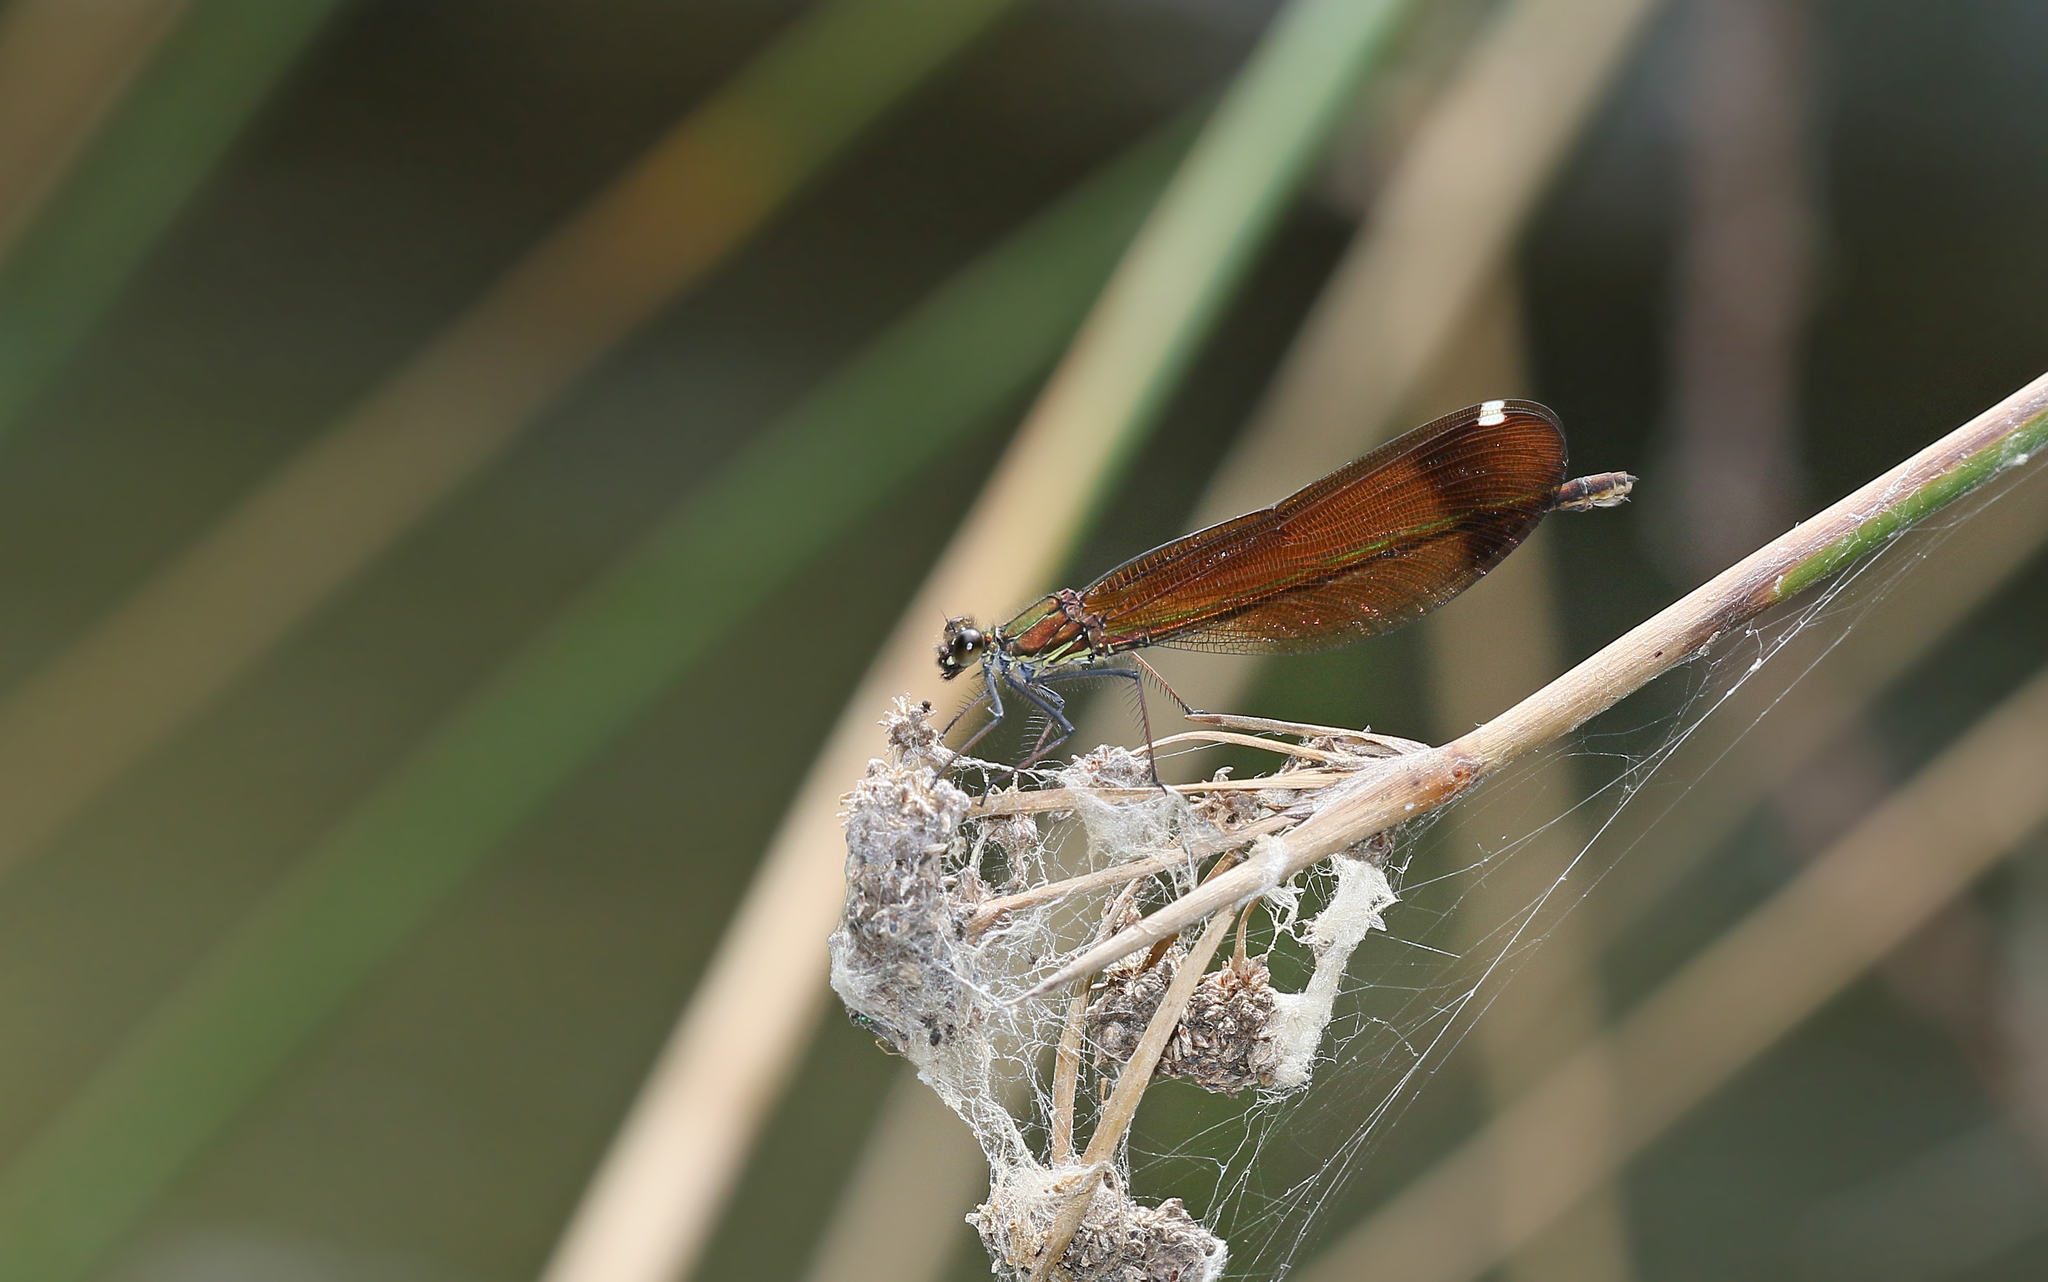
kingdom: Animalia
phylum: Arthropoda
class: Insecta
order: Odonata
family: Calopterygidae
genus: Calopteryx
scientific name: Calopteryx haemorrhoidalis
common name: Copper demoiselle
